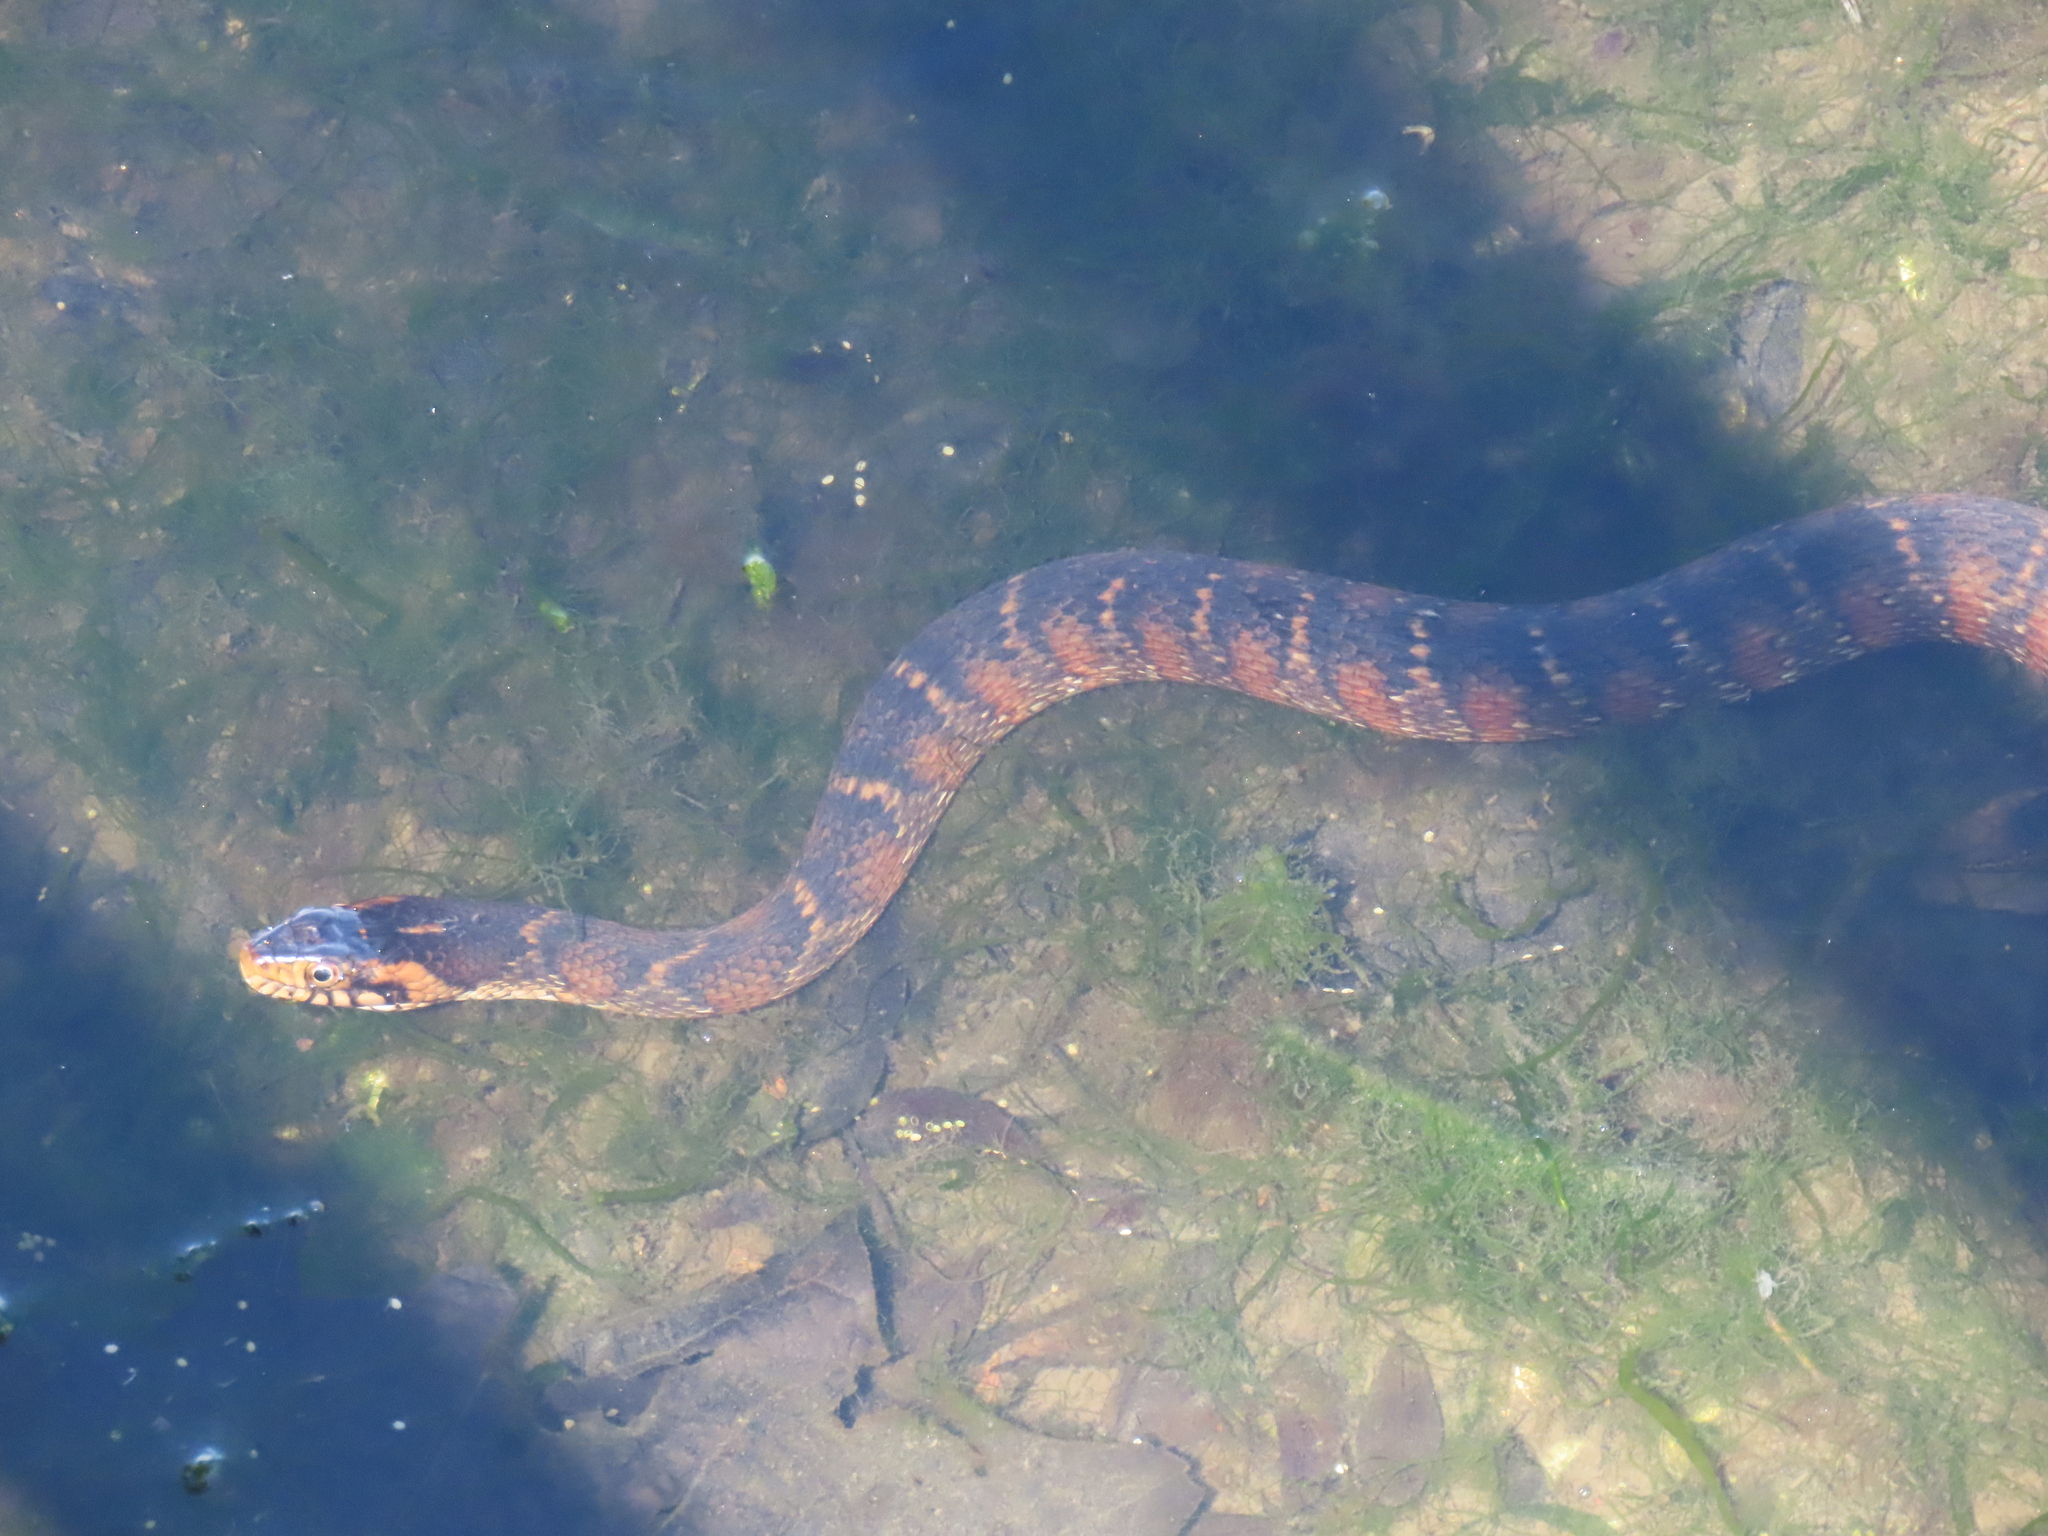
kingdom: Animalia
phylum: Chordata
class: Squamata
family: Colubridae
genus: Nerodia
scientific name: Nerodia fasciata
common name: Southern water snake
